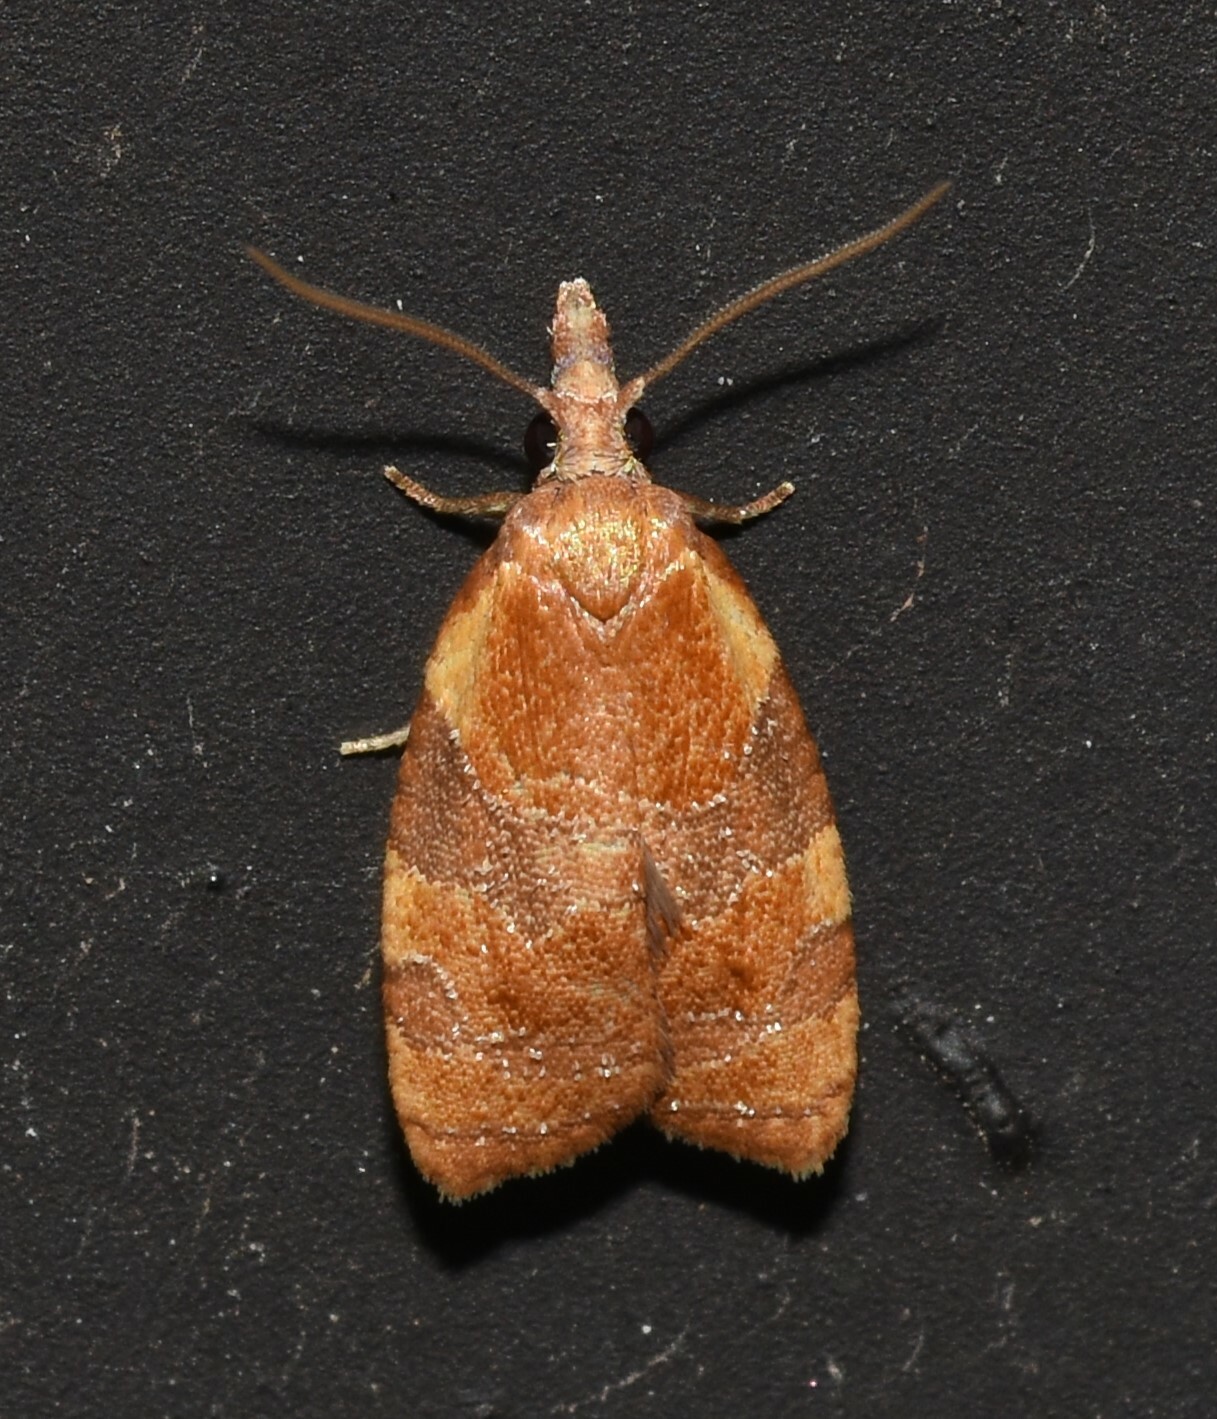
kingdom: Animalia
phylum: Arthropoda
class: Insecta
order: Lepidoptera
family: Tortricidae
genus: Cenopis
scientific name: Cenopis diluticostana
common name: Spring dead-leaf roller moth
